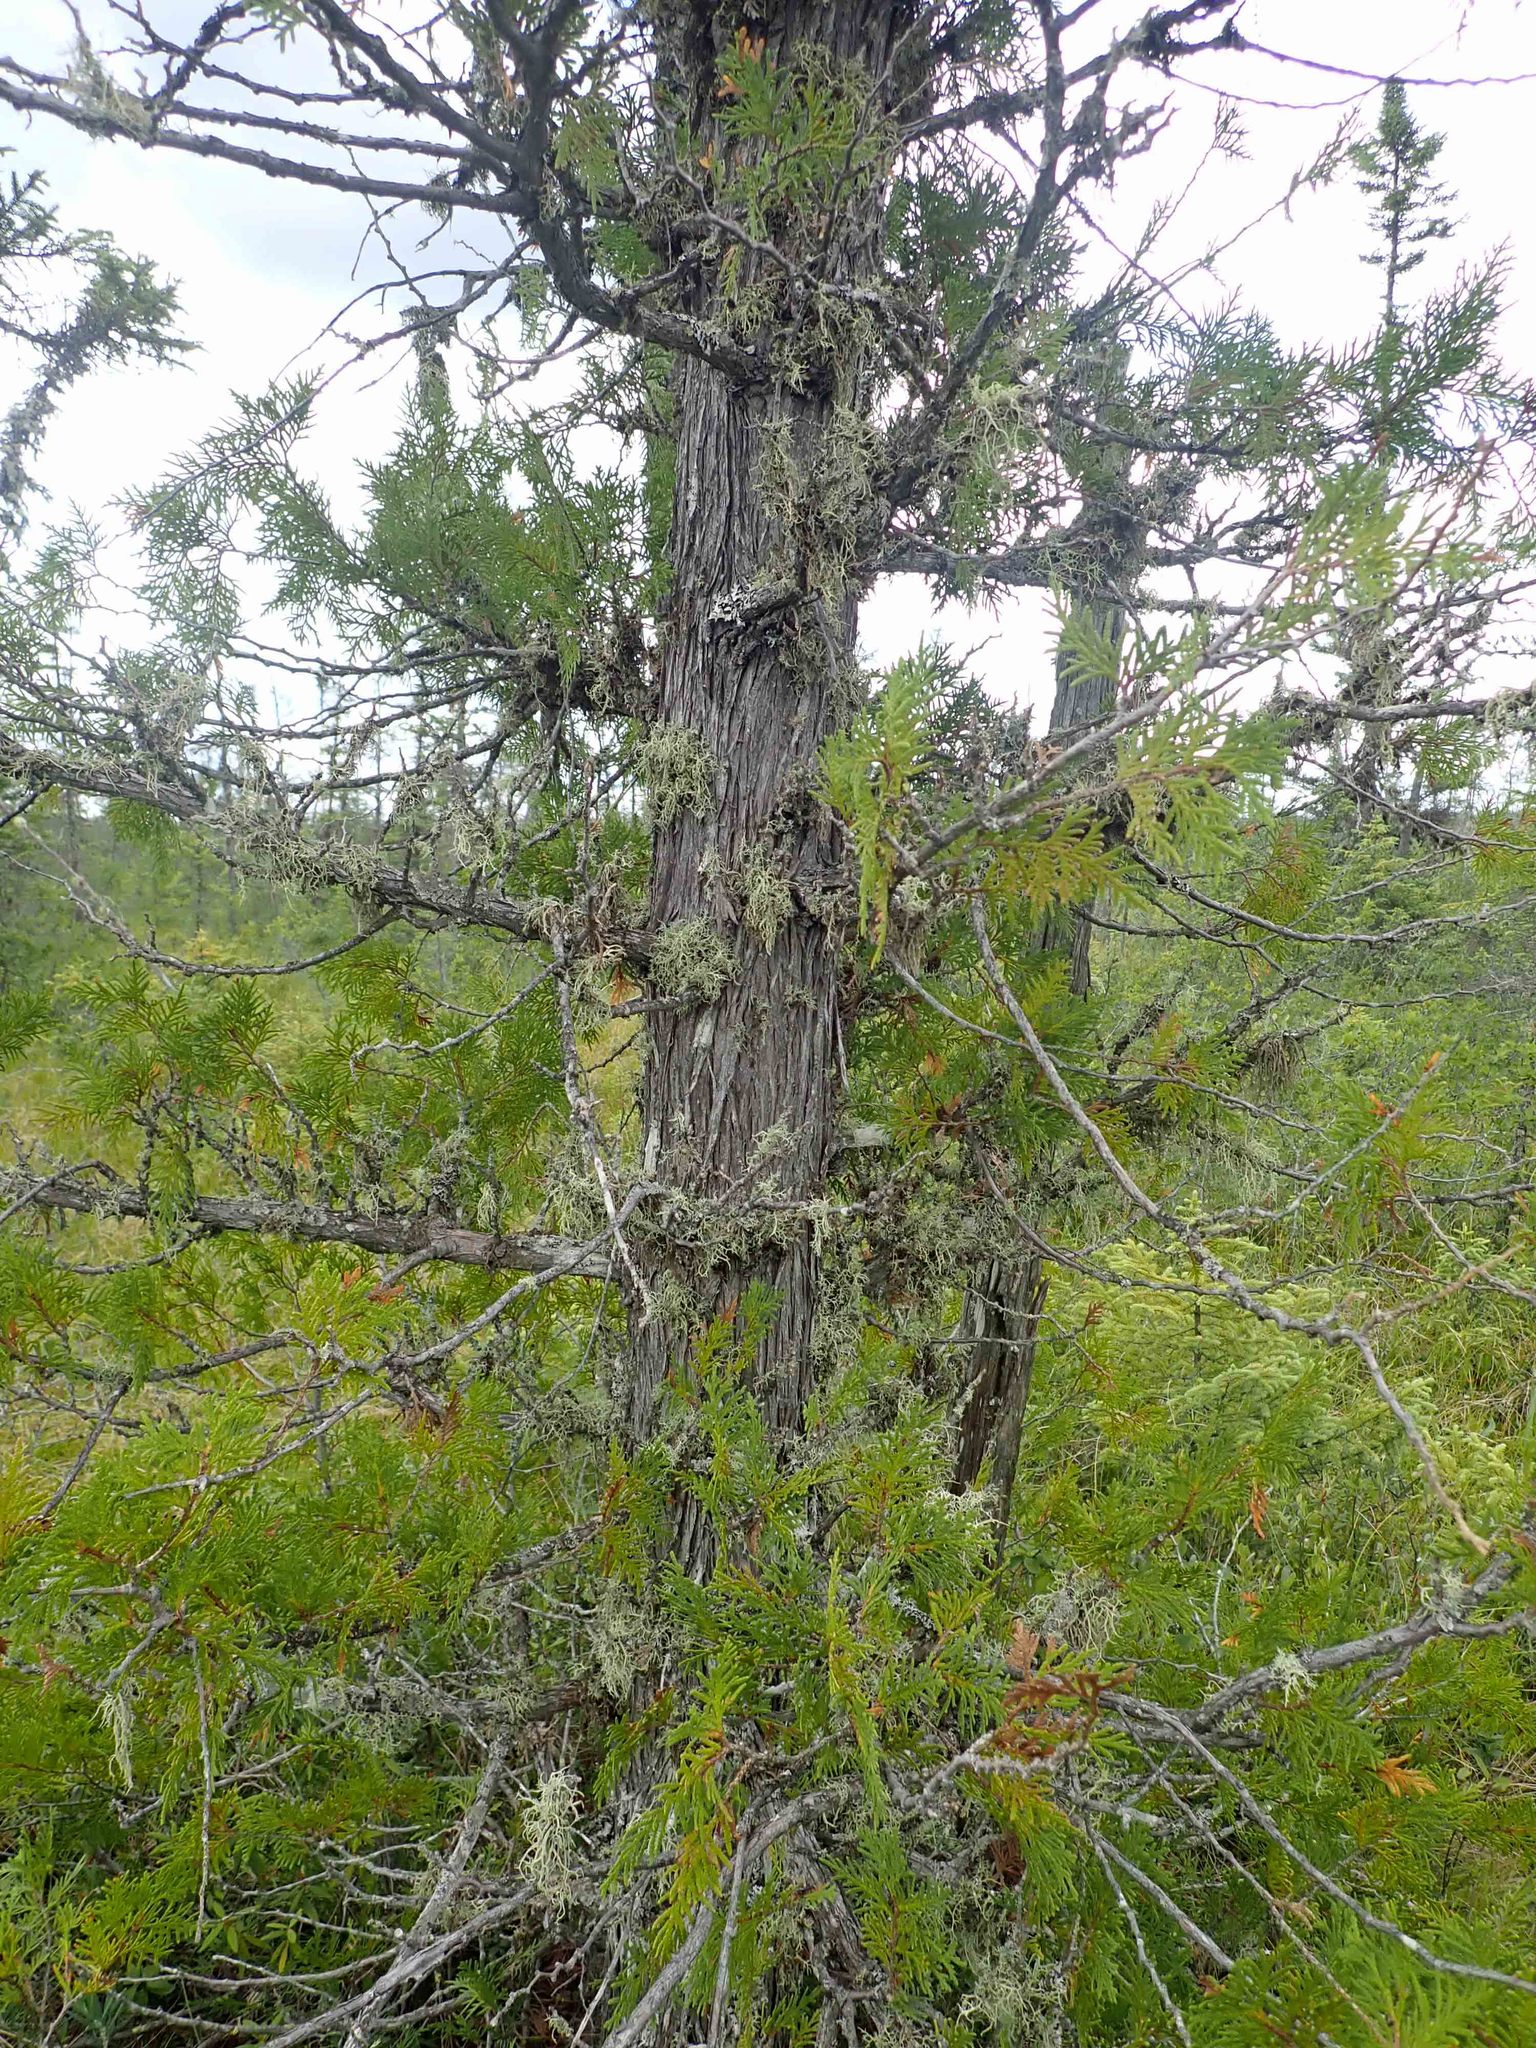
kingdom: Plantae
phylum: Tracheophyta
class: Pinopsida
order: Pinales
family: Cupressaceae
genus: Thuja
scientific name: Thuja occidentalis
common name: Northern white-cedar
